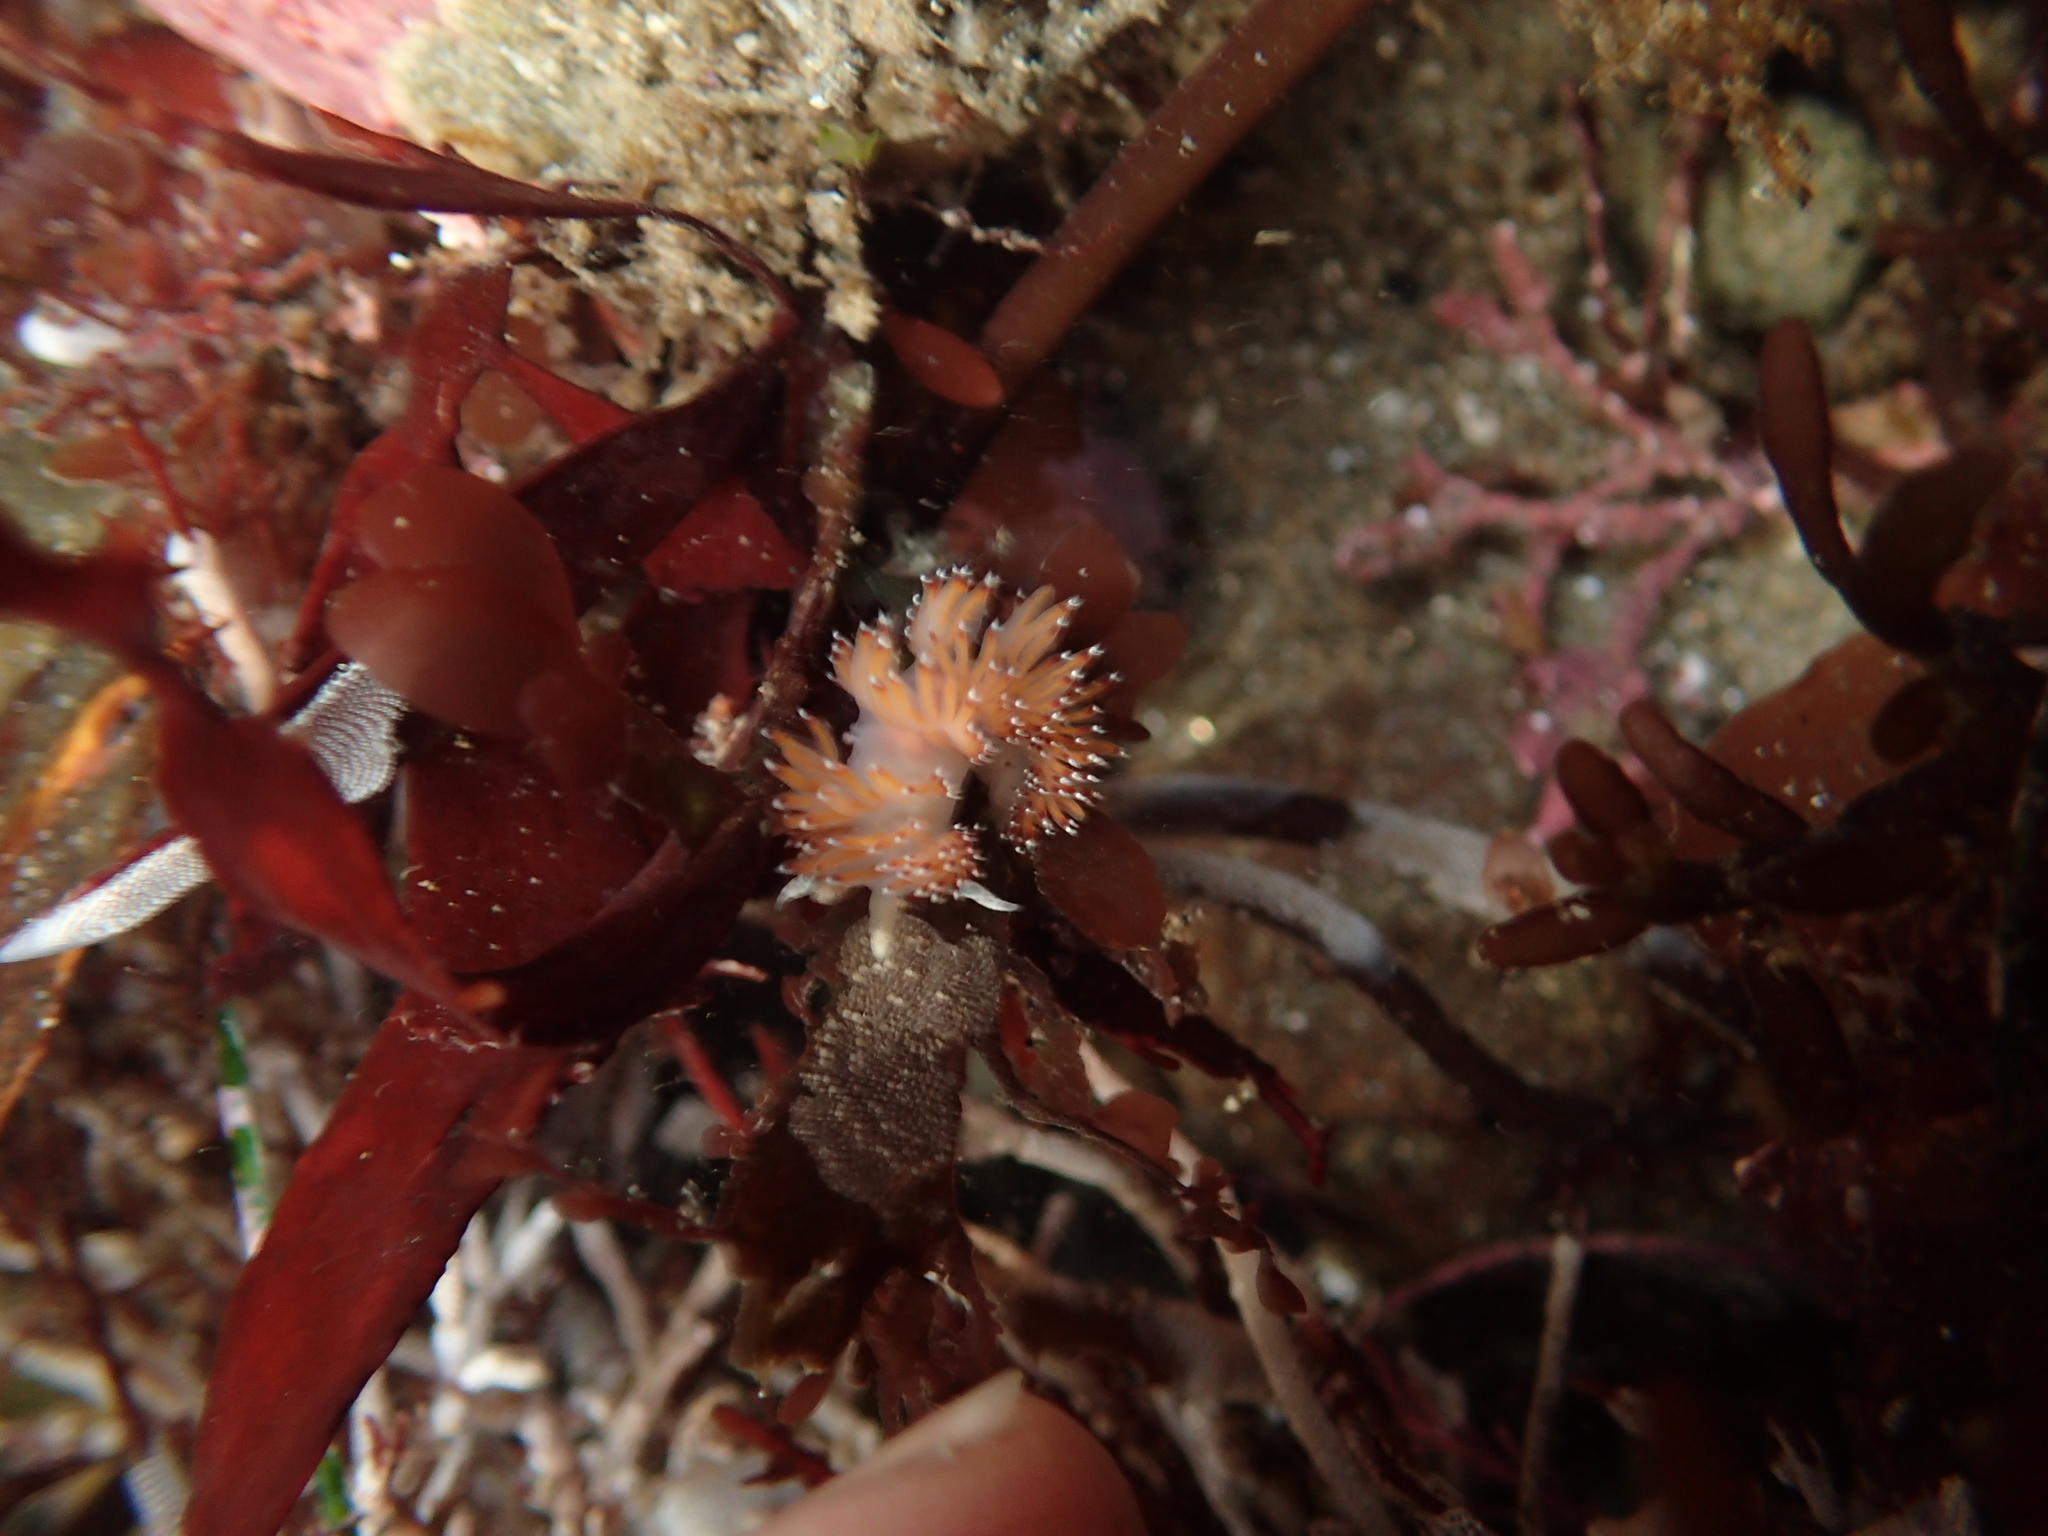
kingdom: Animalia
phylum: Mollusca
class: Gastropoda
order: Nudibranchia
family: Apataidae
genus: Apata
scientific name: Apata pricei
